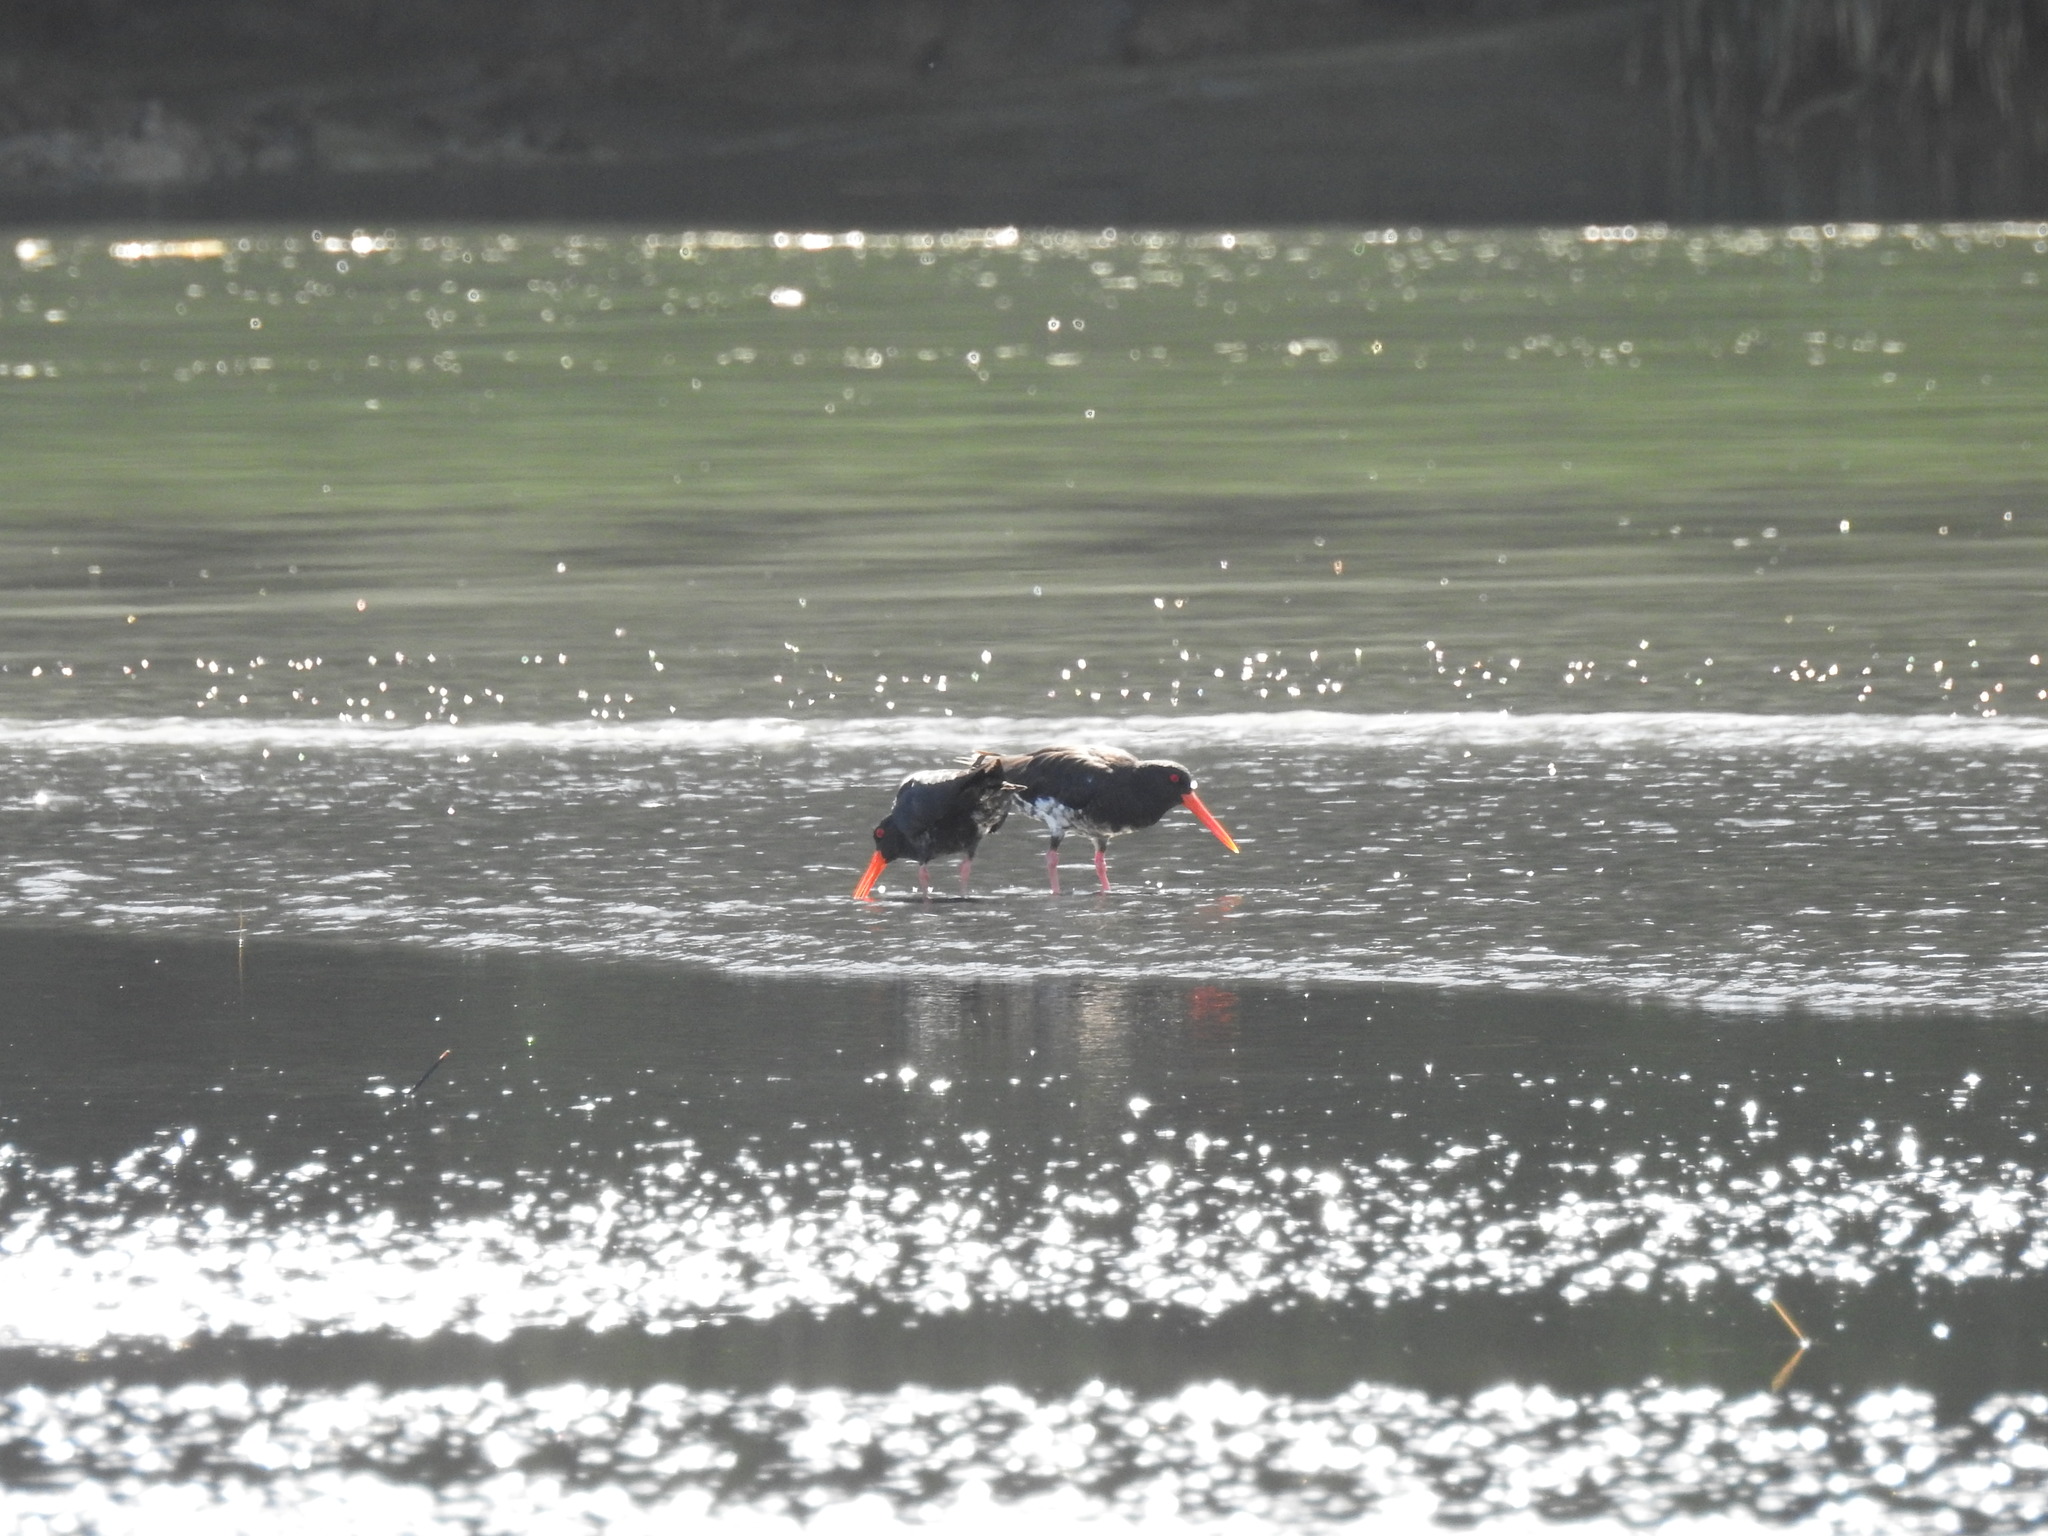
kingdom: Animalia
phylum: Chordata
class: Aves
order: Charadriiformes
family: Haematopodidae
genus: Haematopus
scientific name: Haematopus unicolor
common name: Variable oystercatcher
